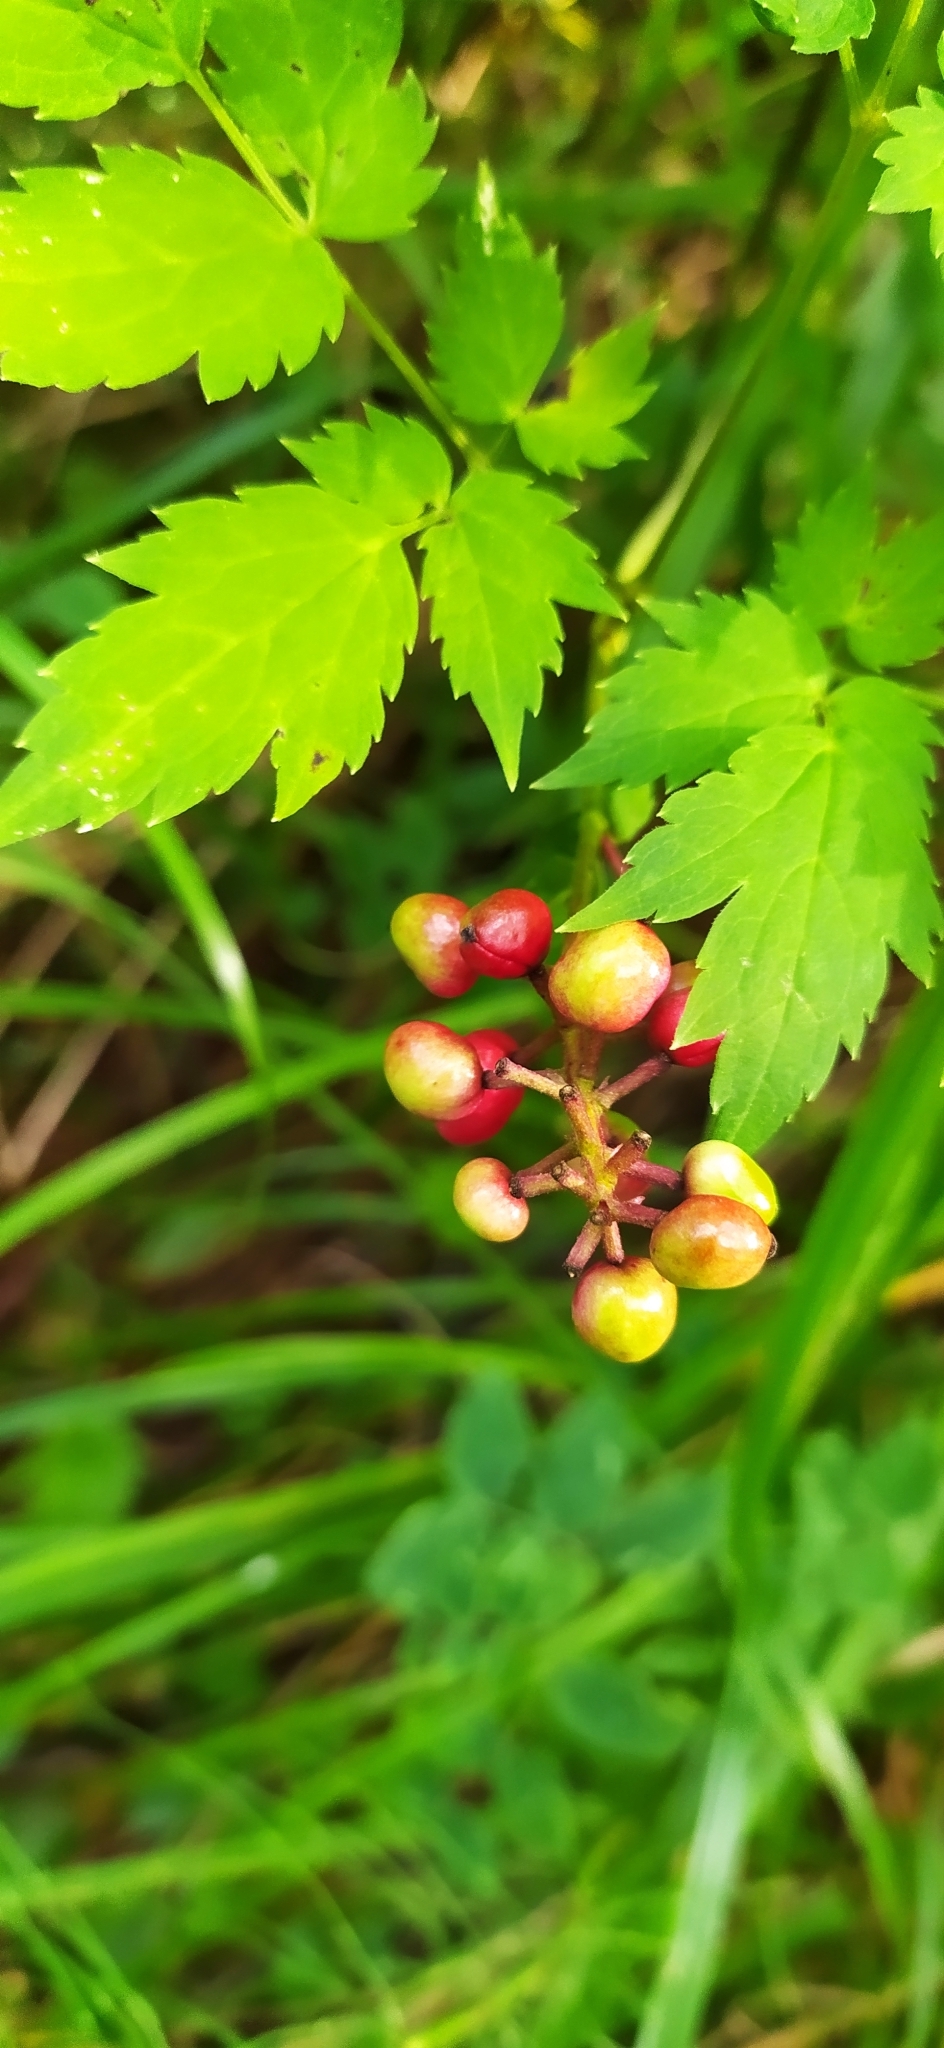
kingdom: Plantae
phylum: Tracheophyta
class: Magnoliopsida
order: Ranunculales
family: Ranunculaceae
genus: Actaea
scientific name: Actaea erythrocarpa
